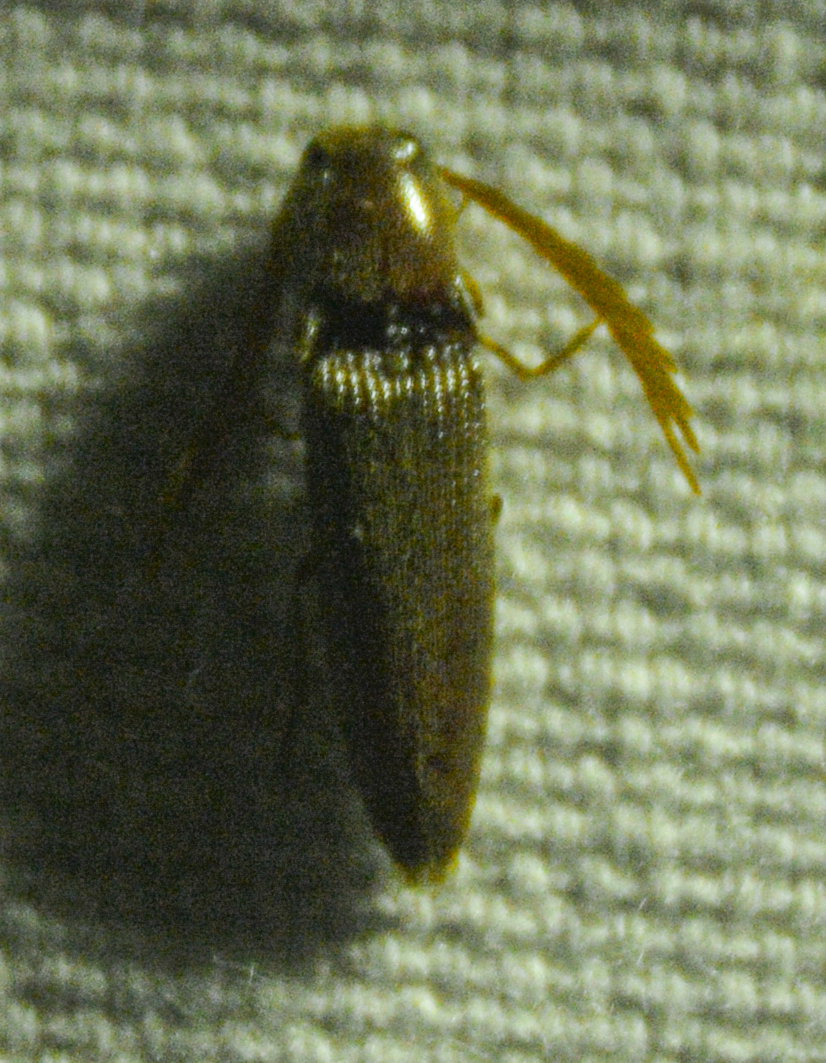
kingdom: Animalia
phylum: Arthropoda
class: Insecta
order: Coleoptera
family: Elateridae
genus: Dicrepidius
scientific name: Dicrepidius palmatus
